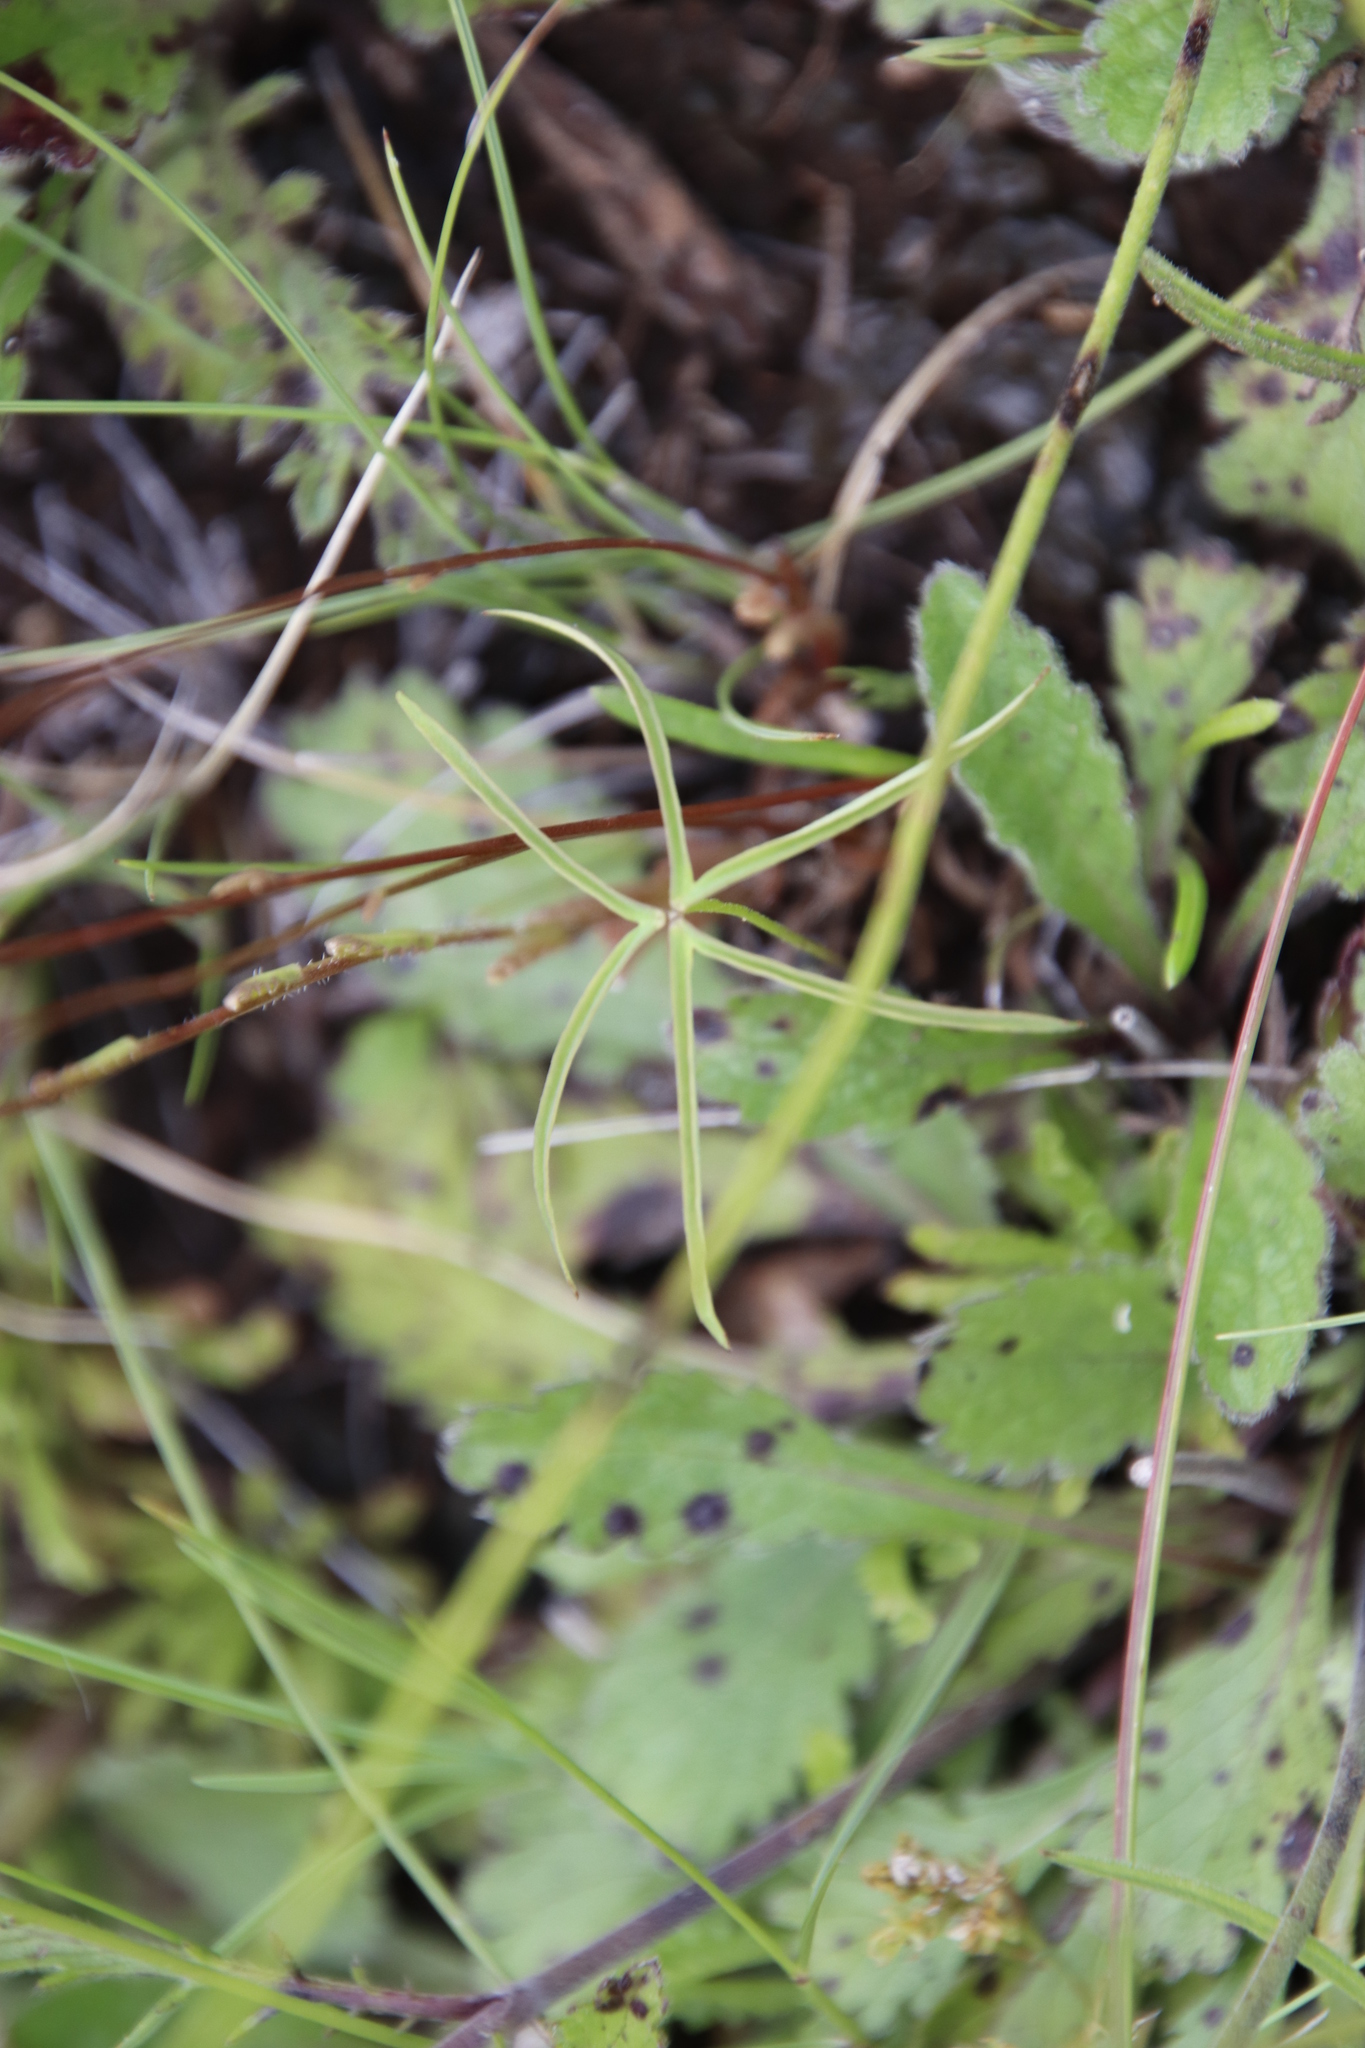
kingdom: Plantae
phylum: Tracheophyta
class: Magnoliopsida
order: Oxalidales
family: Oxalidaceae
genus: Oxalis
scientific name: Oxalis smithiana
